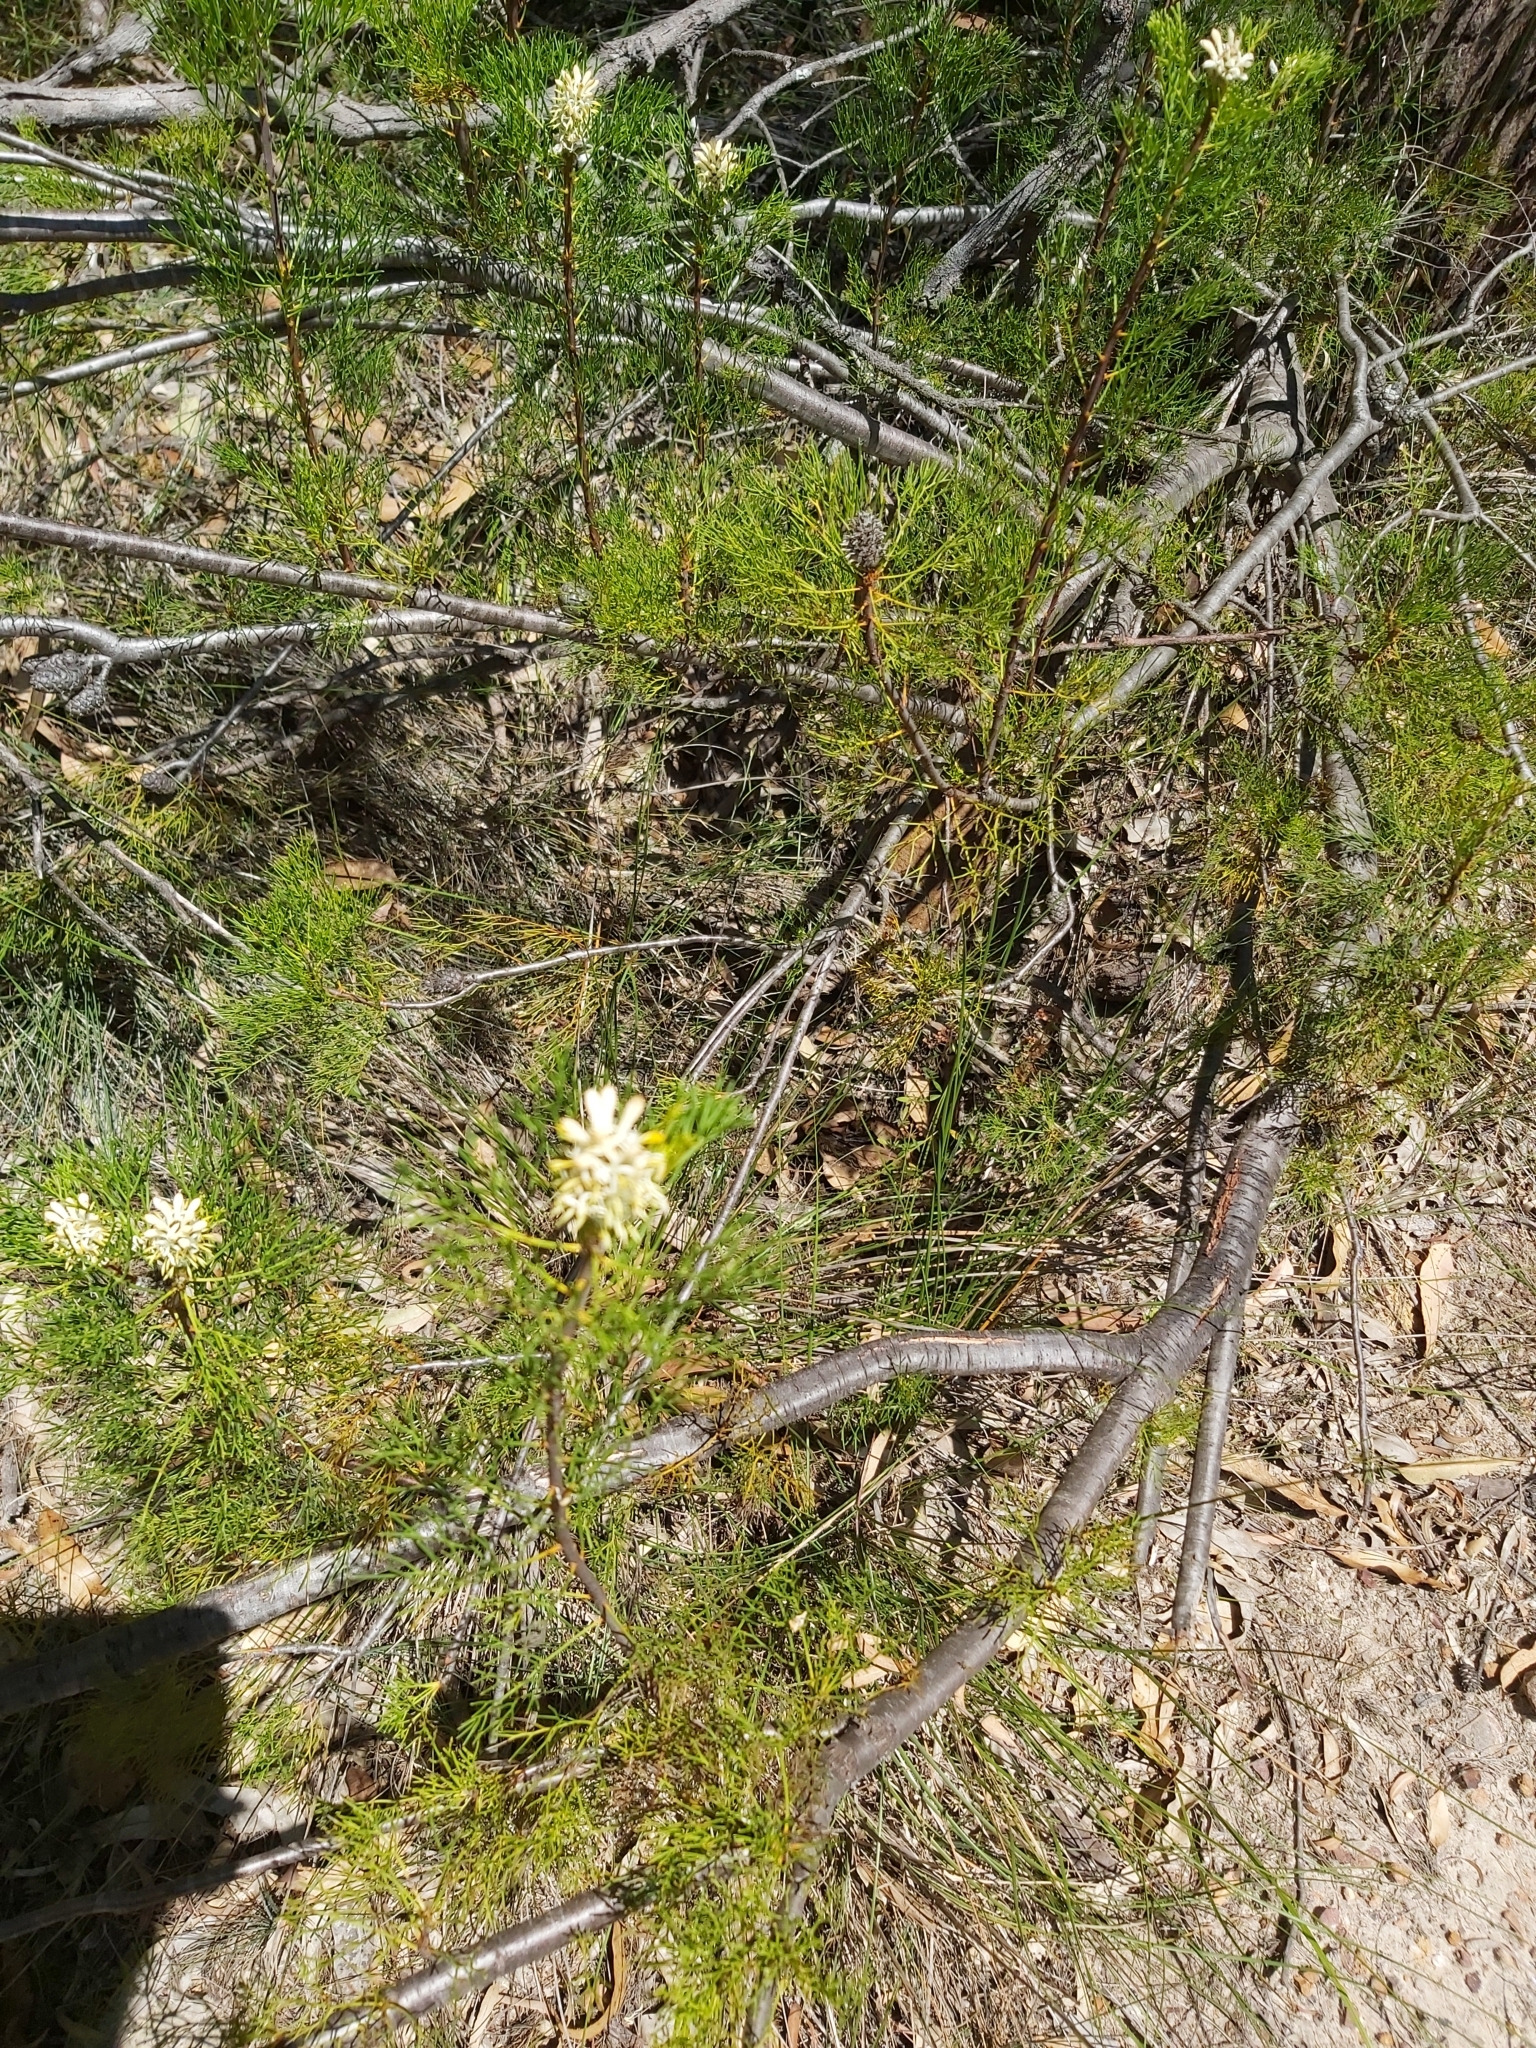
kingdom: Plantae
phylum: Tracheophyta
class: Magnoliopsida
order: Proteales
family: Proteaceae
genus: Petrophile
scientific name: Petrophile pulchella
